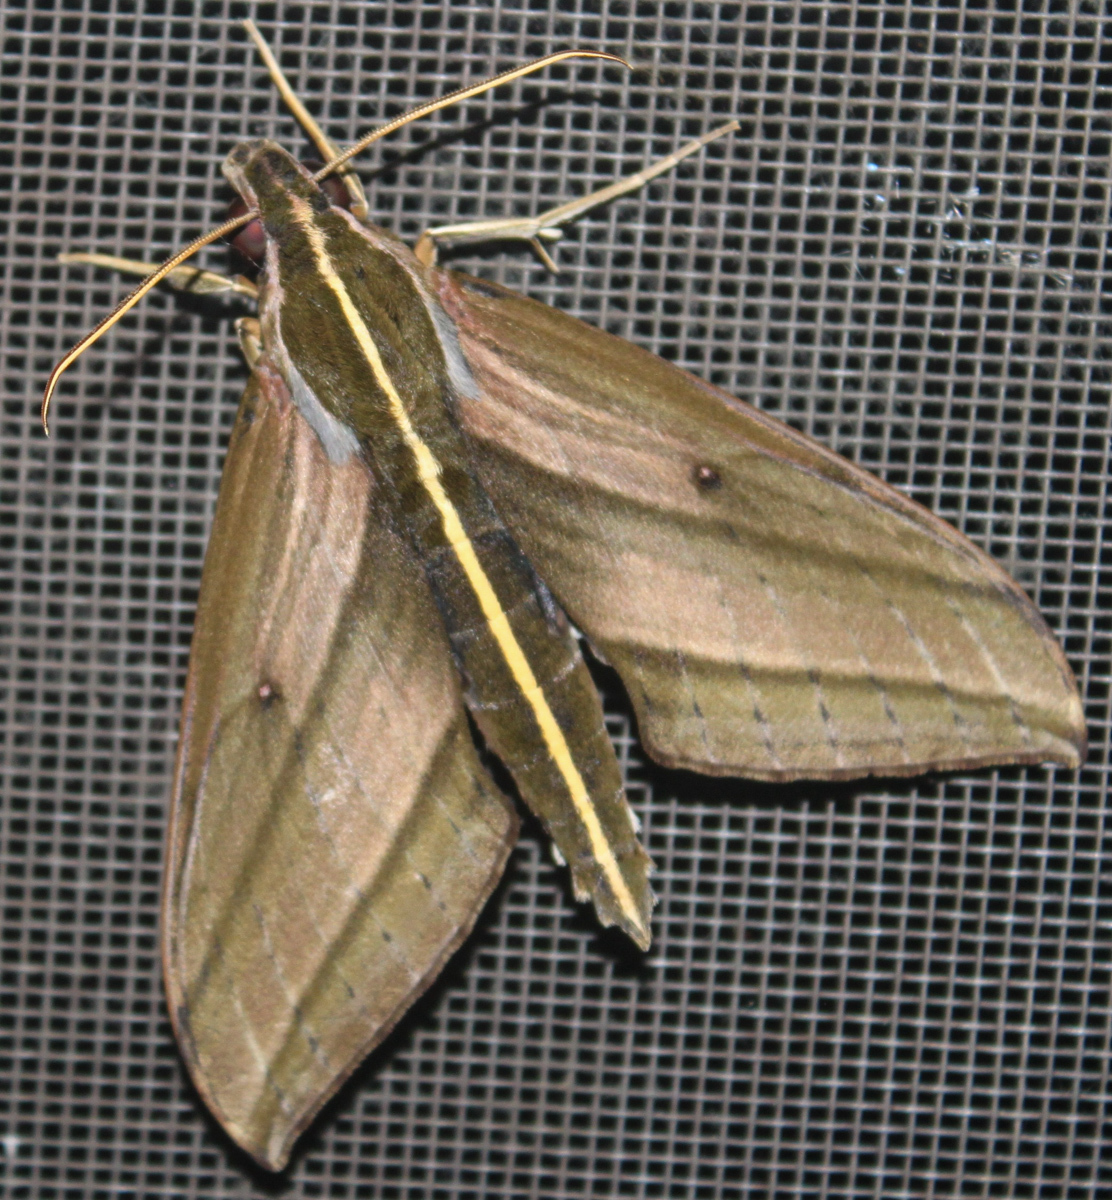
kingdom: Animalia
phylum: Arthropoda
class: Insecta
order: Lepidoptera
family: Sphingidae
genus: Elibia
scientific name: Elibia dolichus
